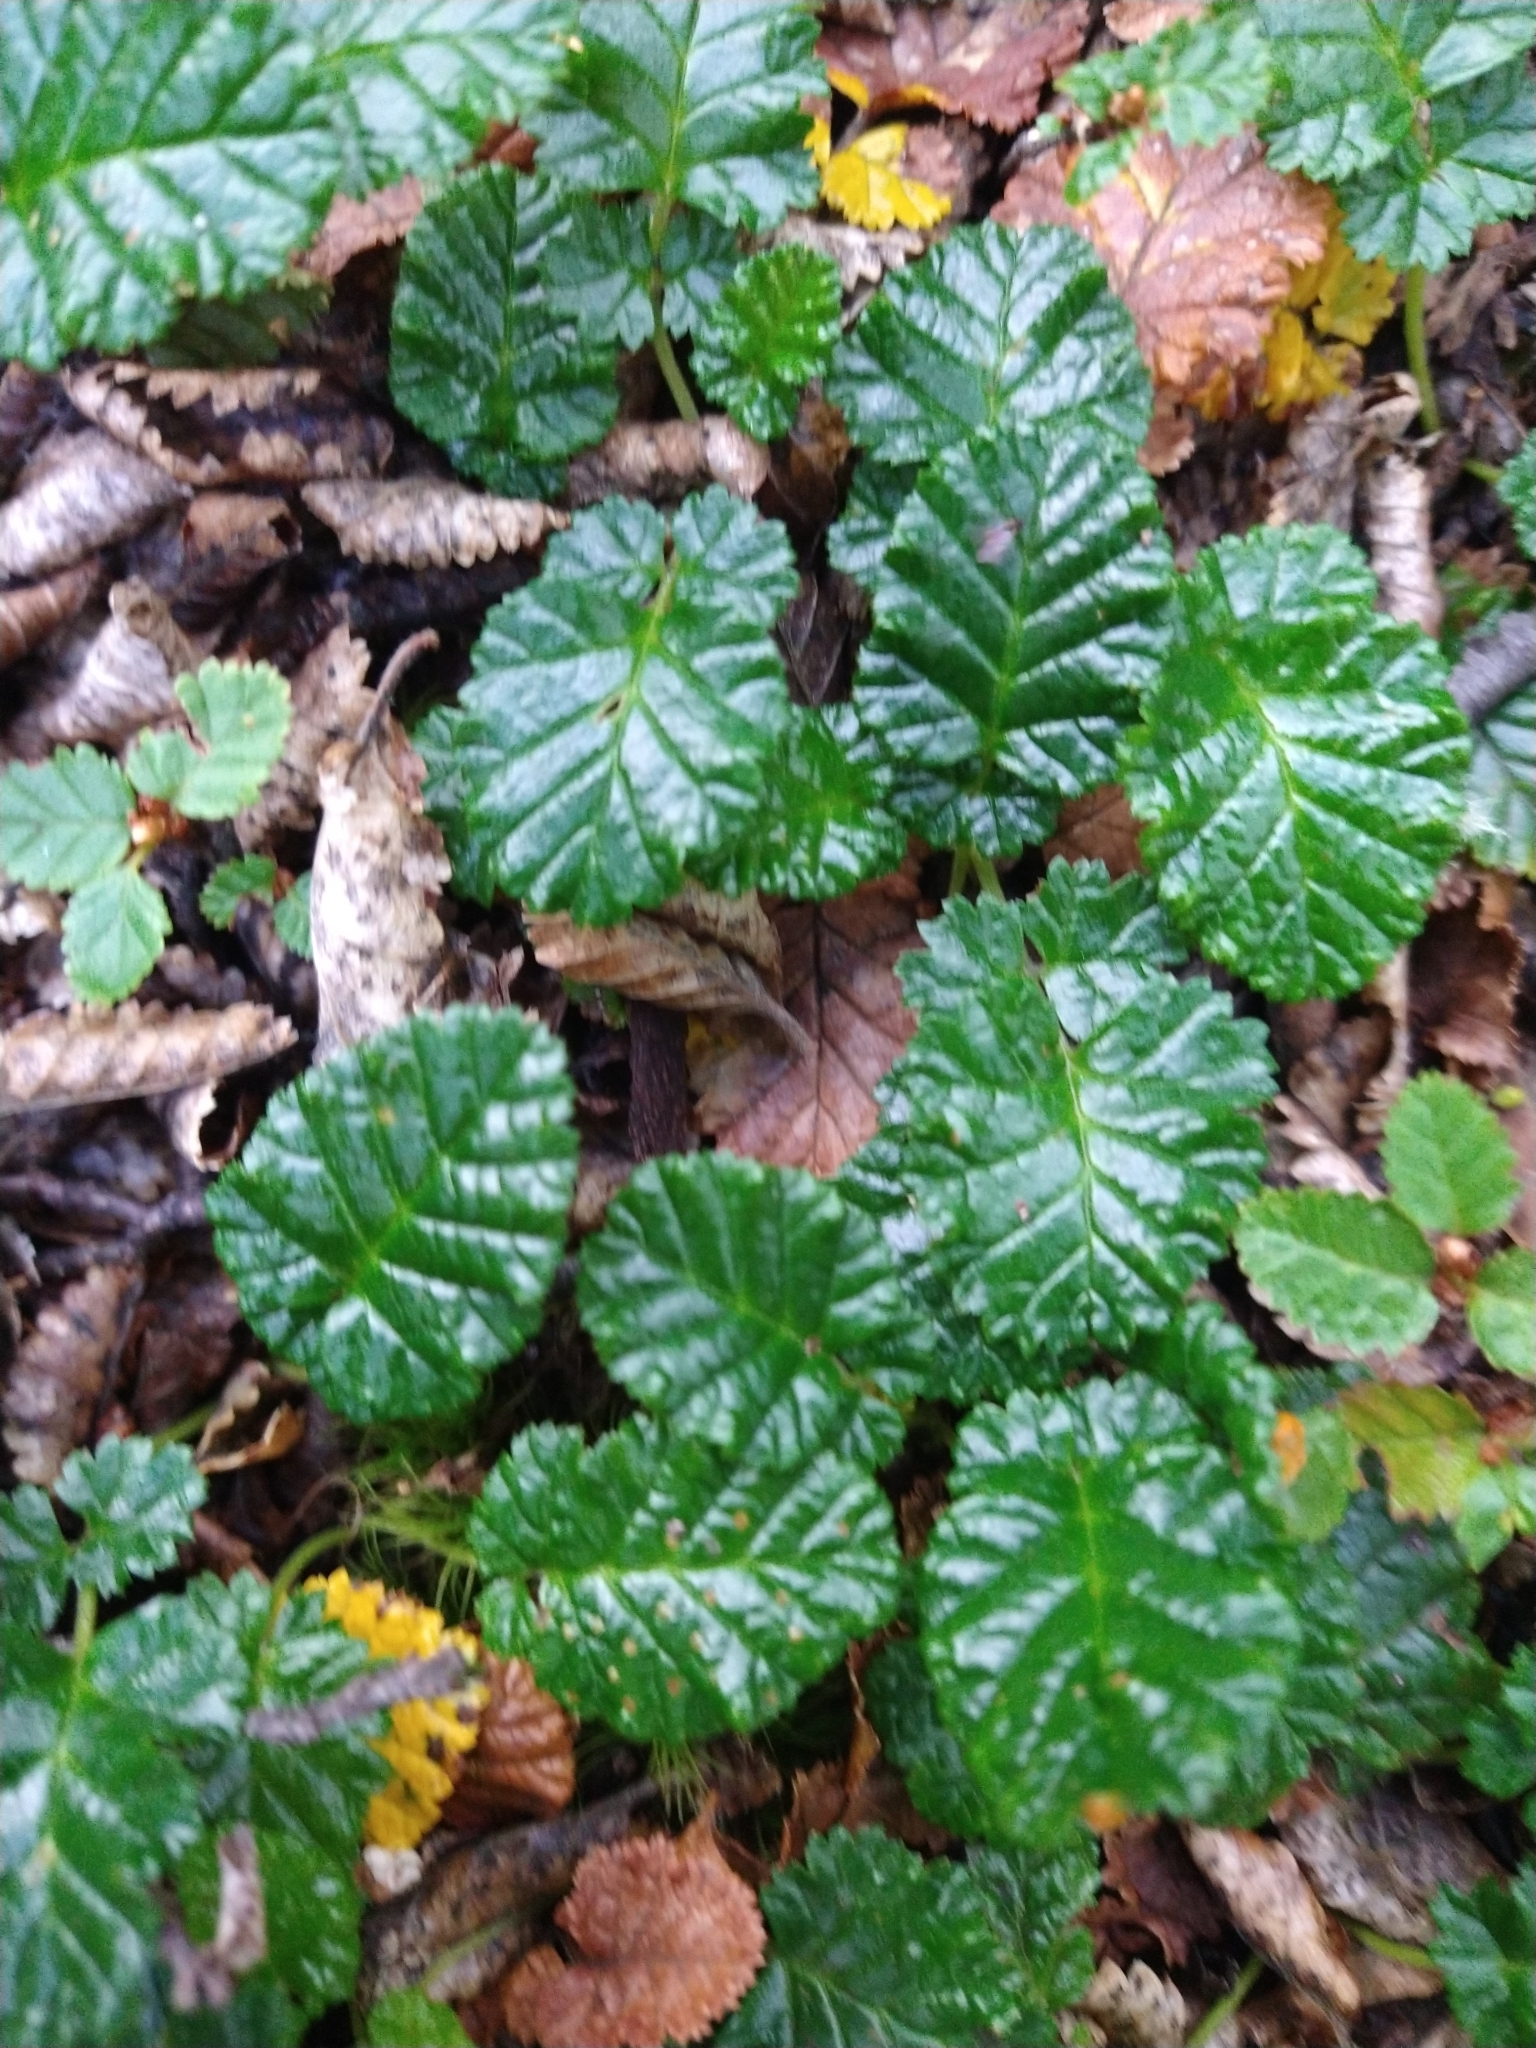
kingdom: Plantae
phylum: Tracheophyta
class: Magnoliopsida
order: Rosales
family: Rosaceae
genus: Rubus
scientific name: Rubus geoides
